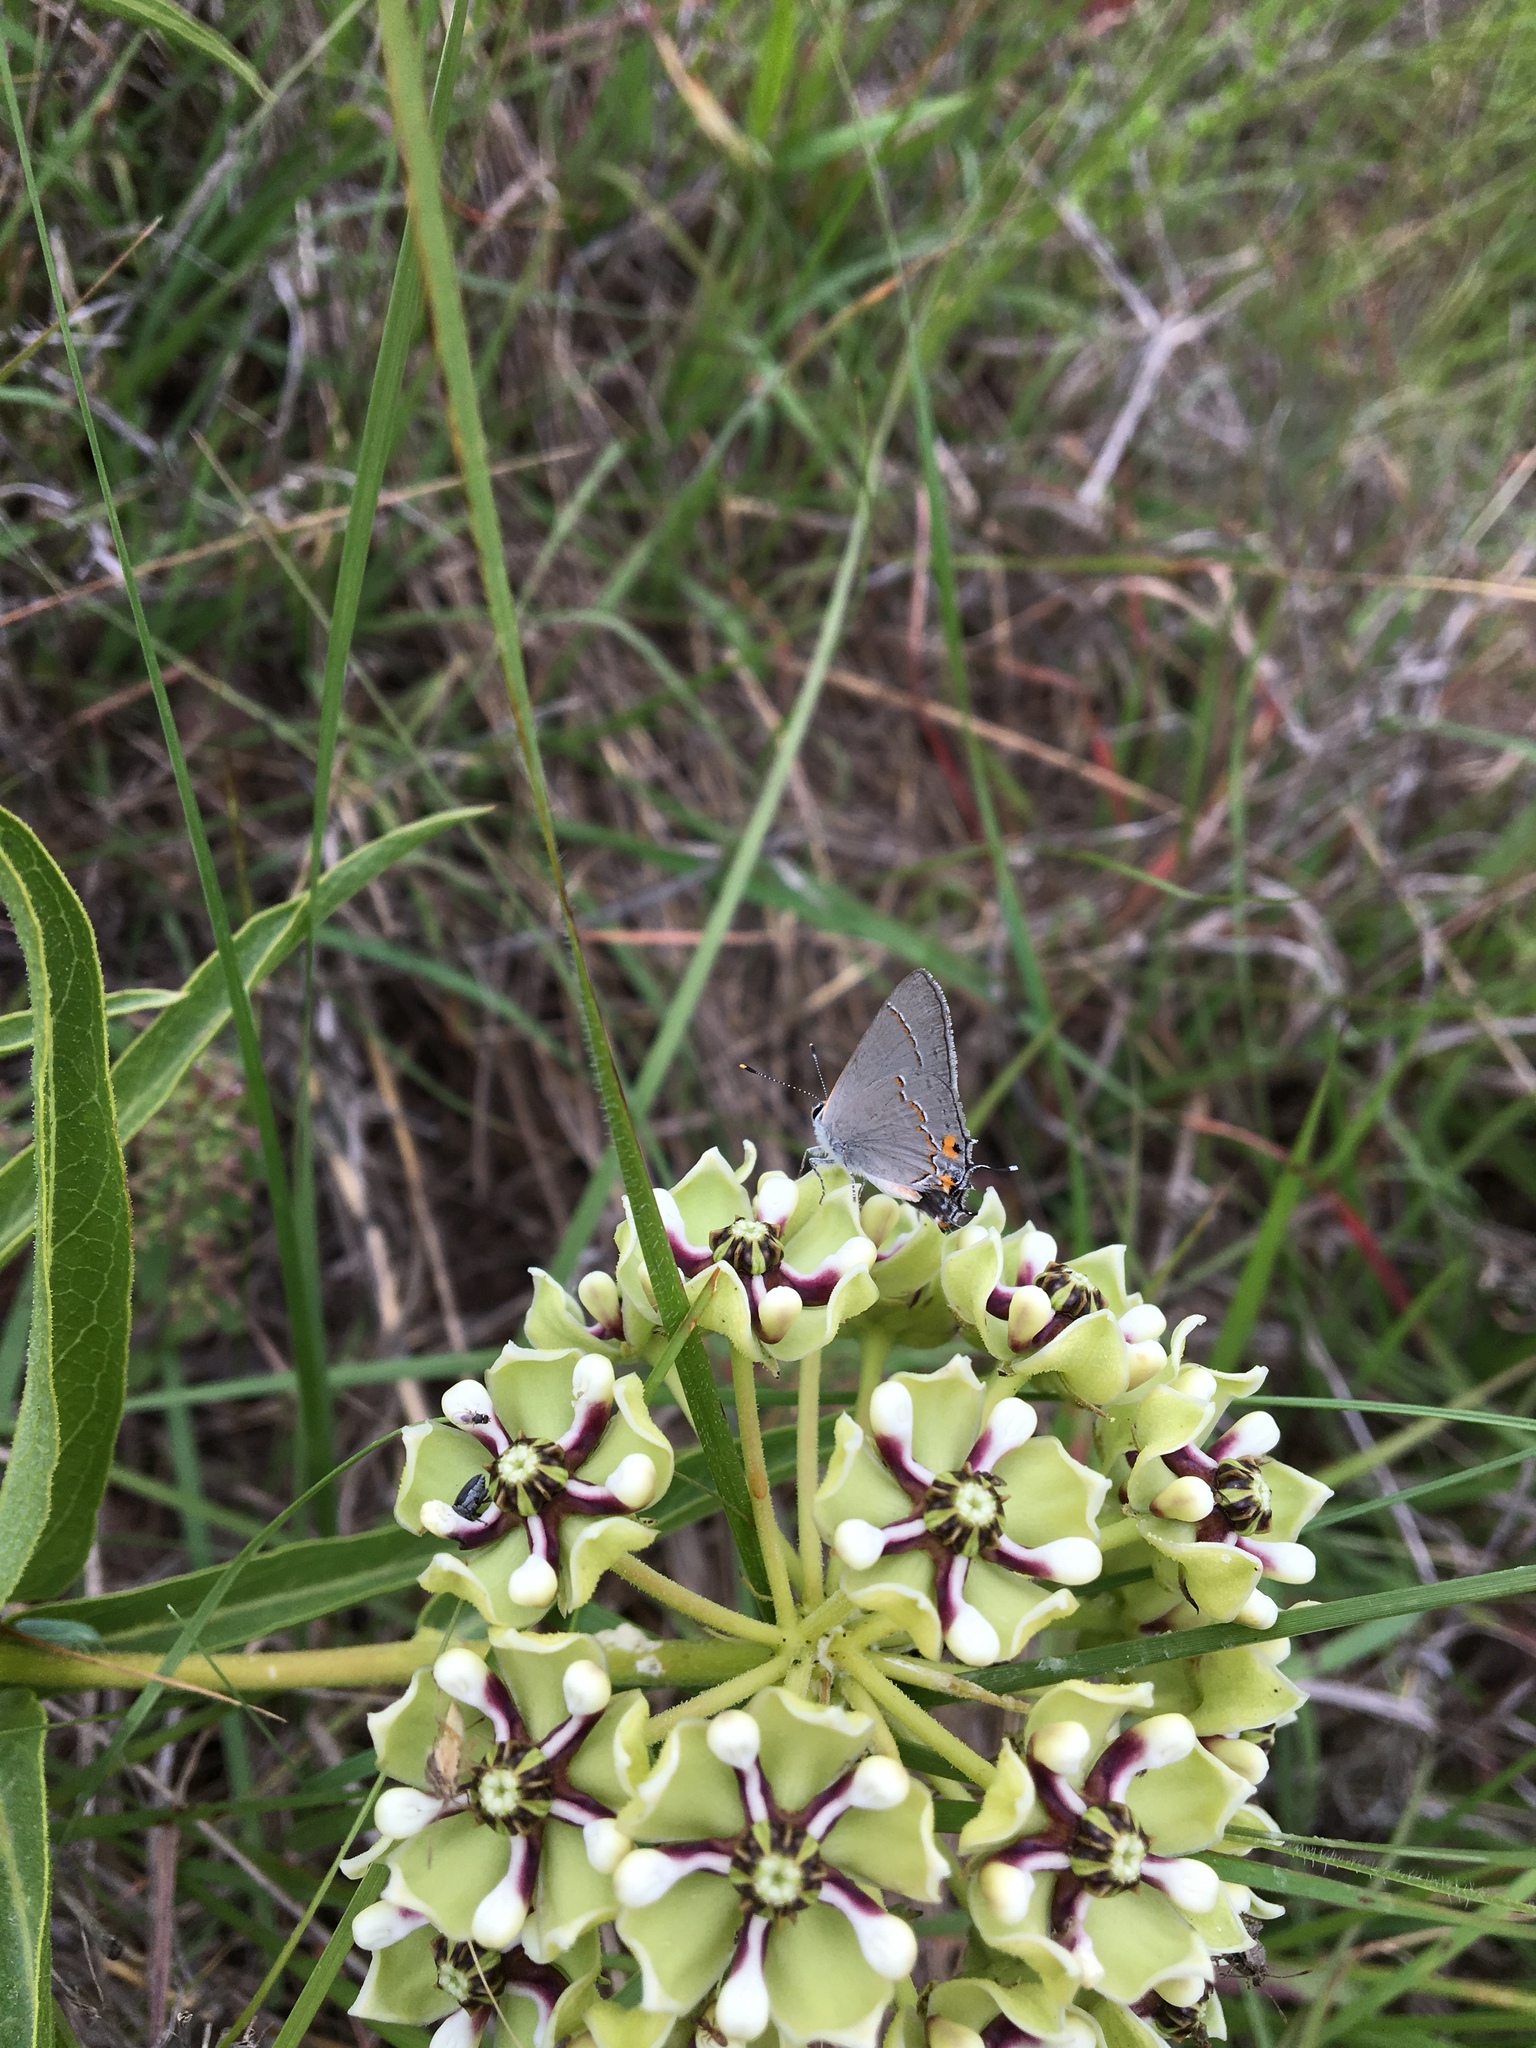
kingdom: Plantae
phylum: Tracheophyta
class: Magnoliopsida
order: Gentianales
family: Apocynaceae
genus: Asclepias
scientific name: Asclepias asperula
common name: Antelope horns
